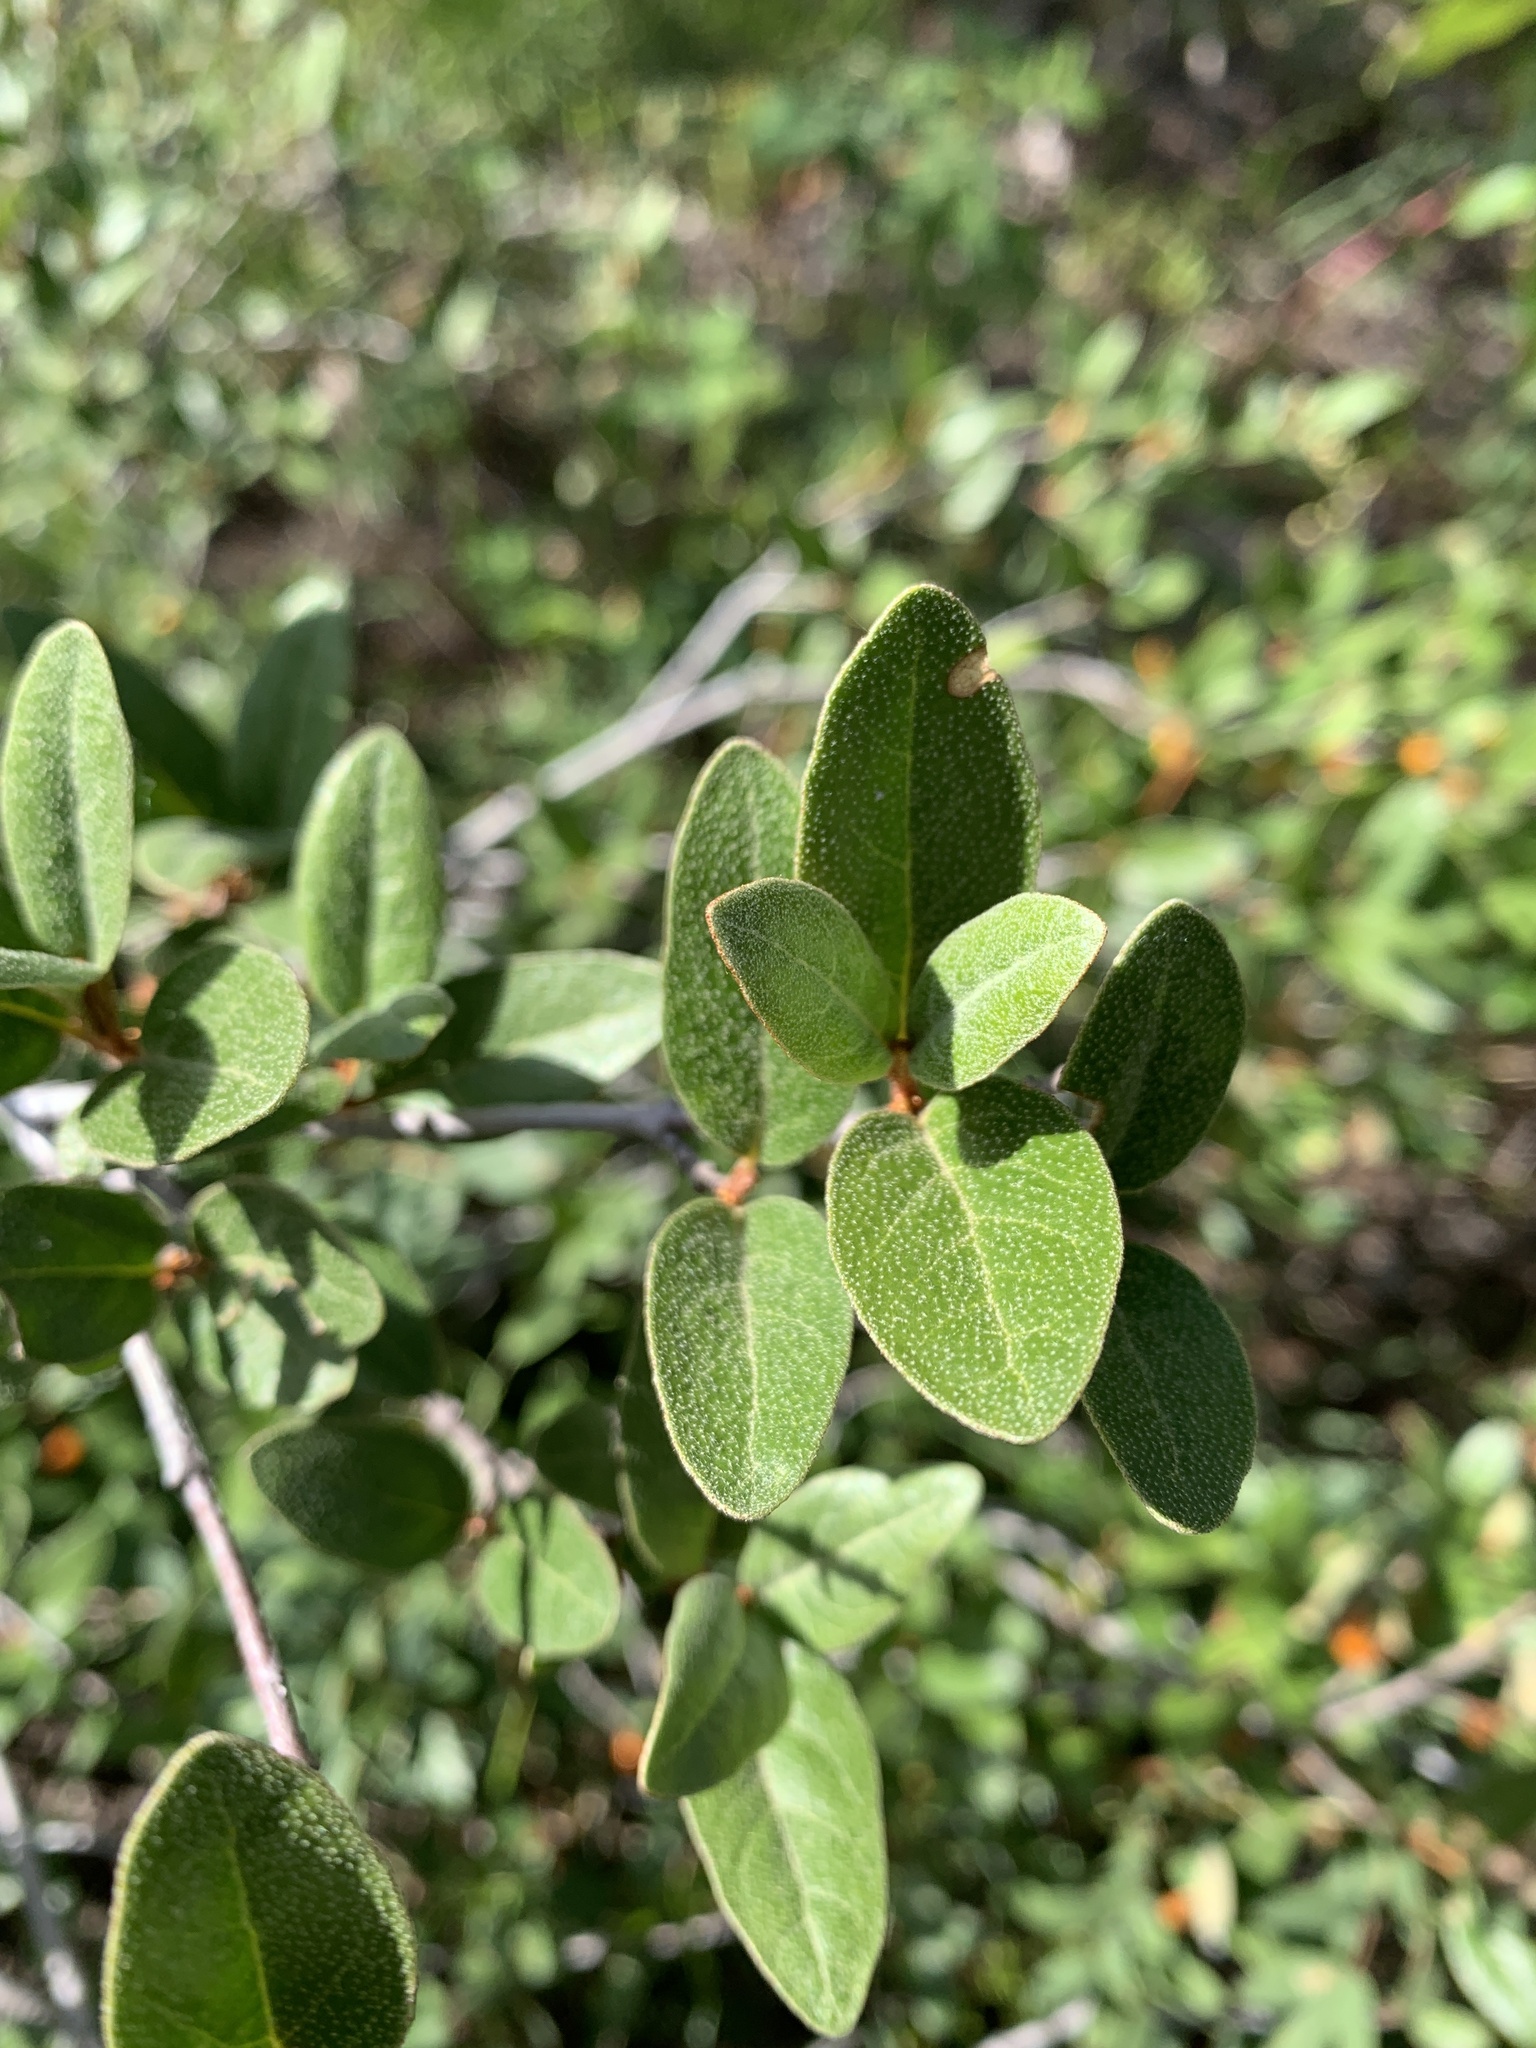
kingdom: Plantae
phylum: Tracheophyta
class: Magnoliopsida
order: Rosales
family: Elaeagnaceae
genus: Shepherdia
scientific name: Shepherdia canadensis
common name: Soapberry
